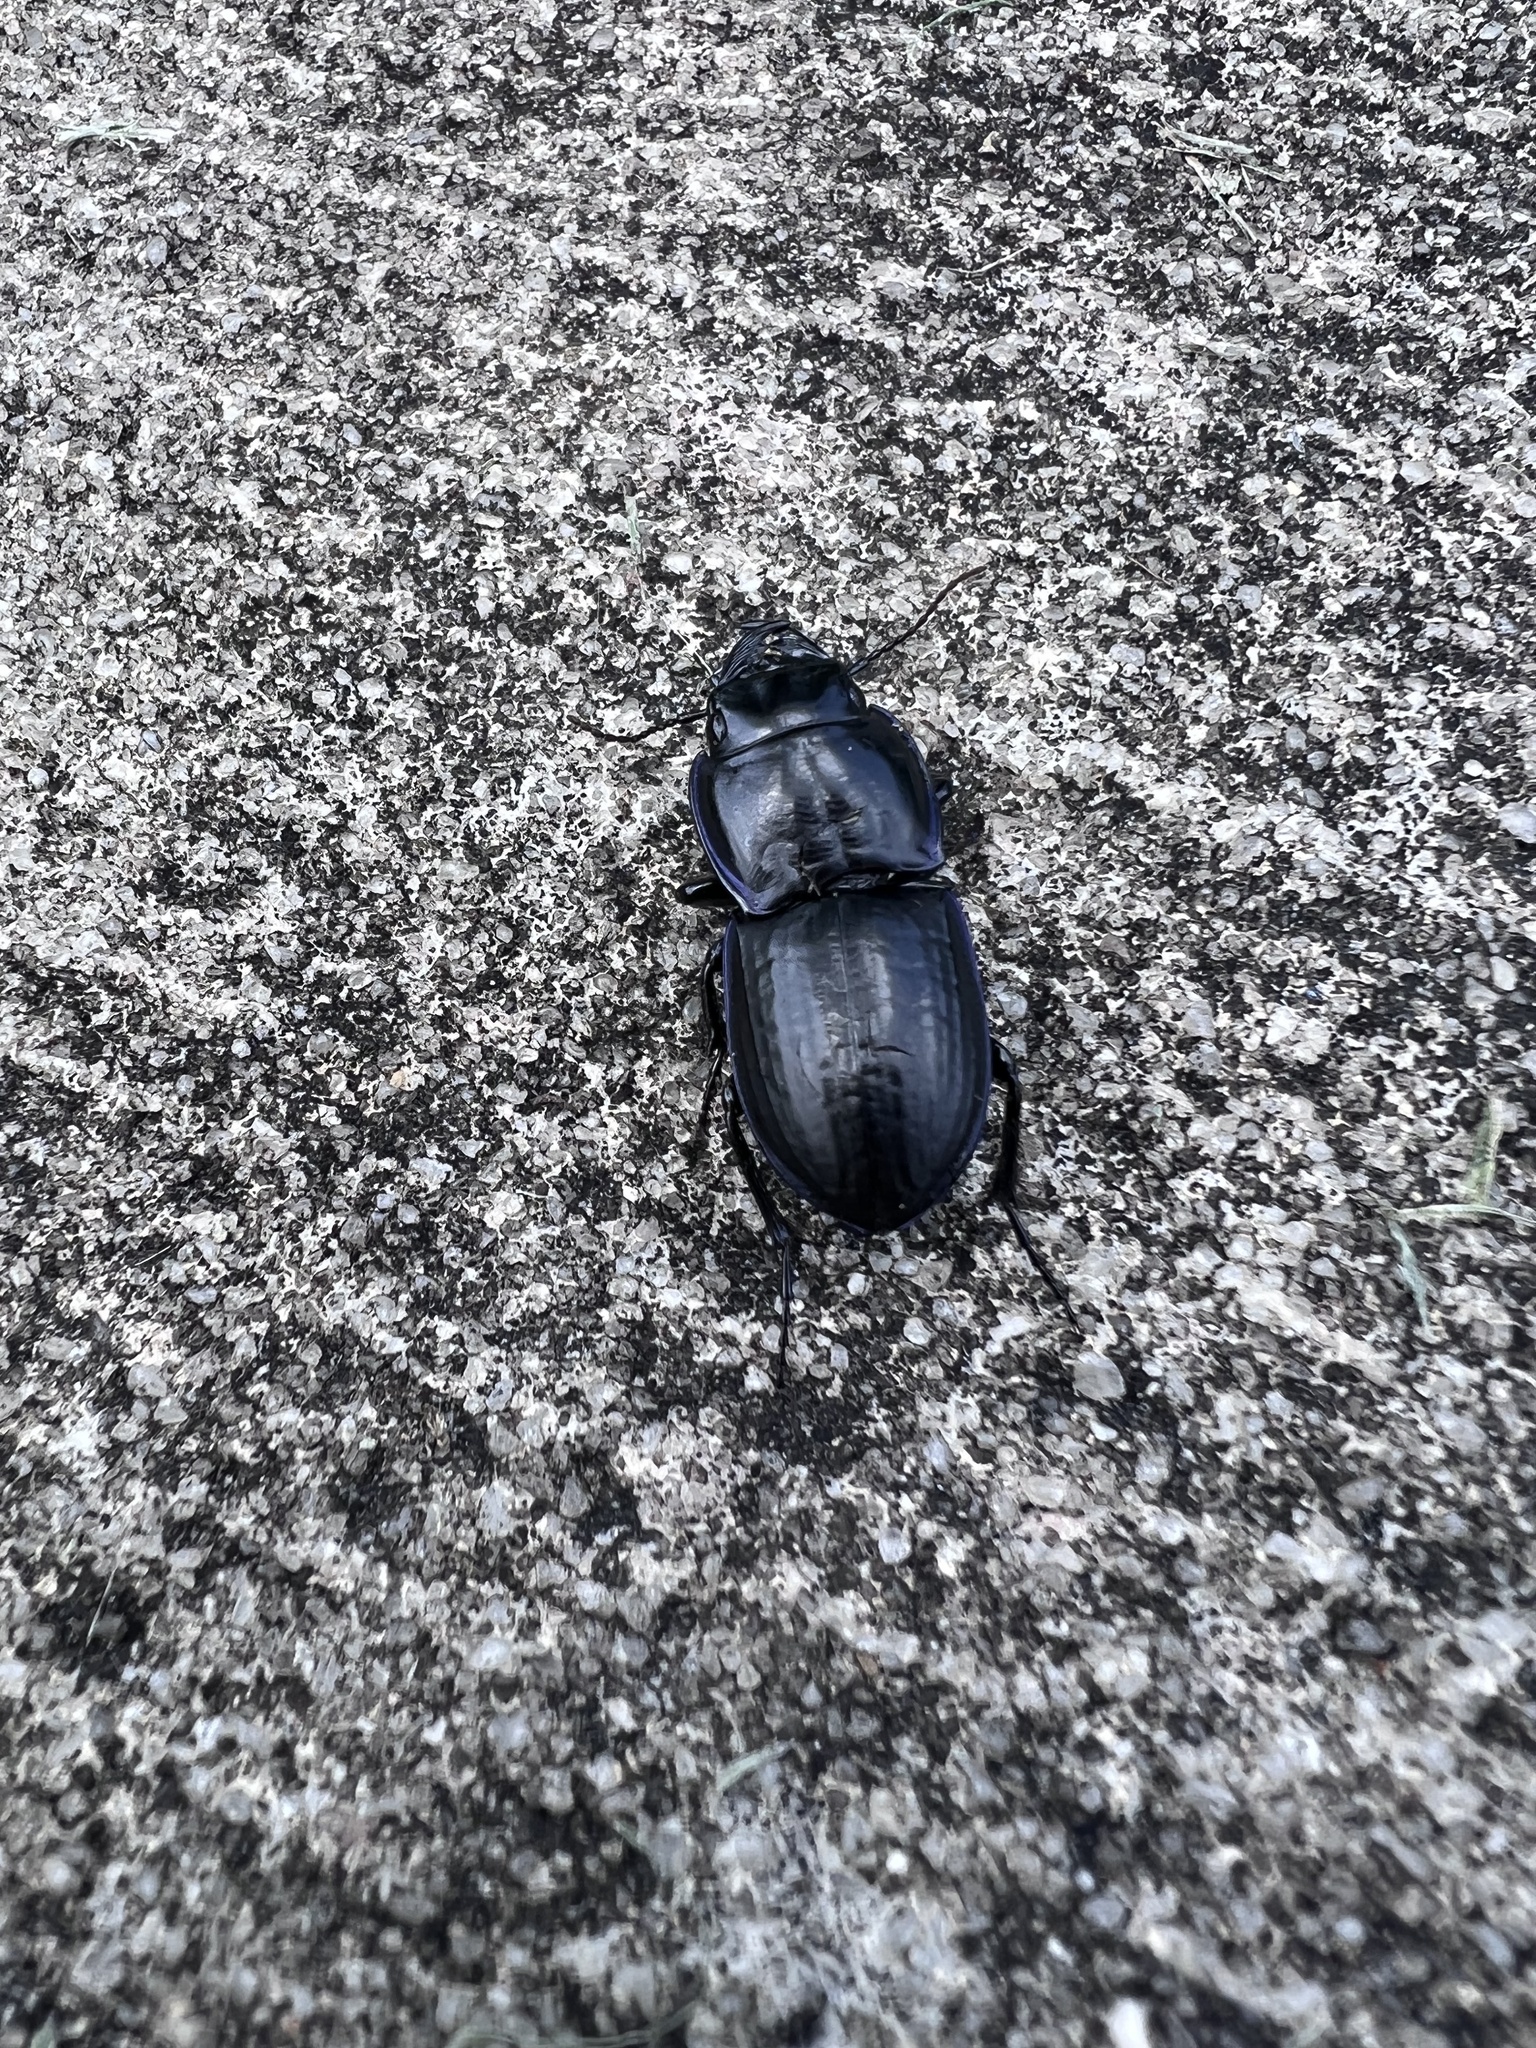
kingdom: Animalia
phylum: Arthropoda
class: Insecta
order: Coleoptera
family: Carabidae
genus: Pasimachus
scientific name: Pasimachus sublaevis
